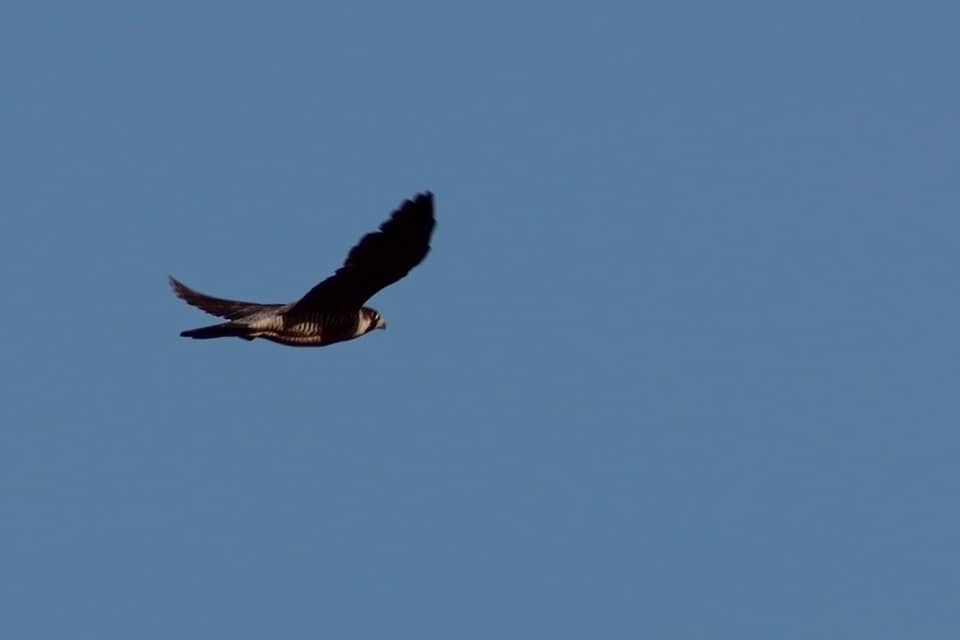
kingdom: Animalia
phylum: Chordata
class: Aves
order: Falconiformes
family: Falconidae
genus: Falco
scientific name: Falco peregrinus
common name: Peregrine falcon
